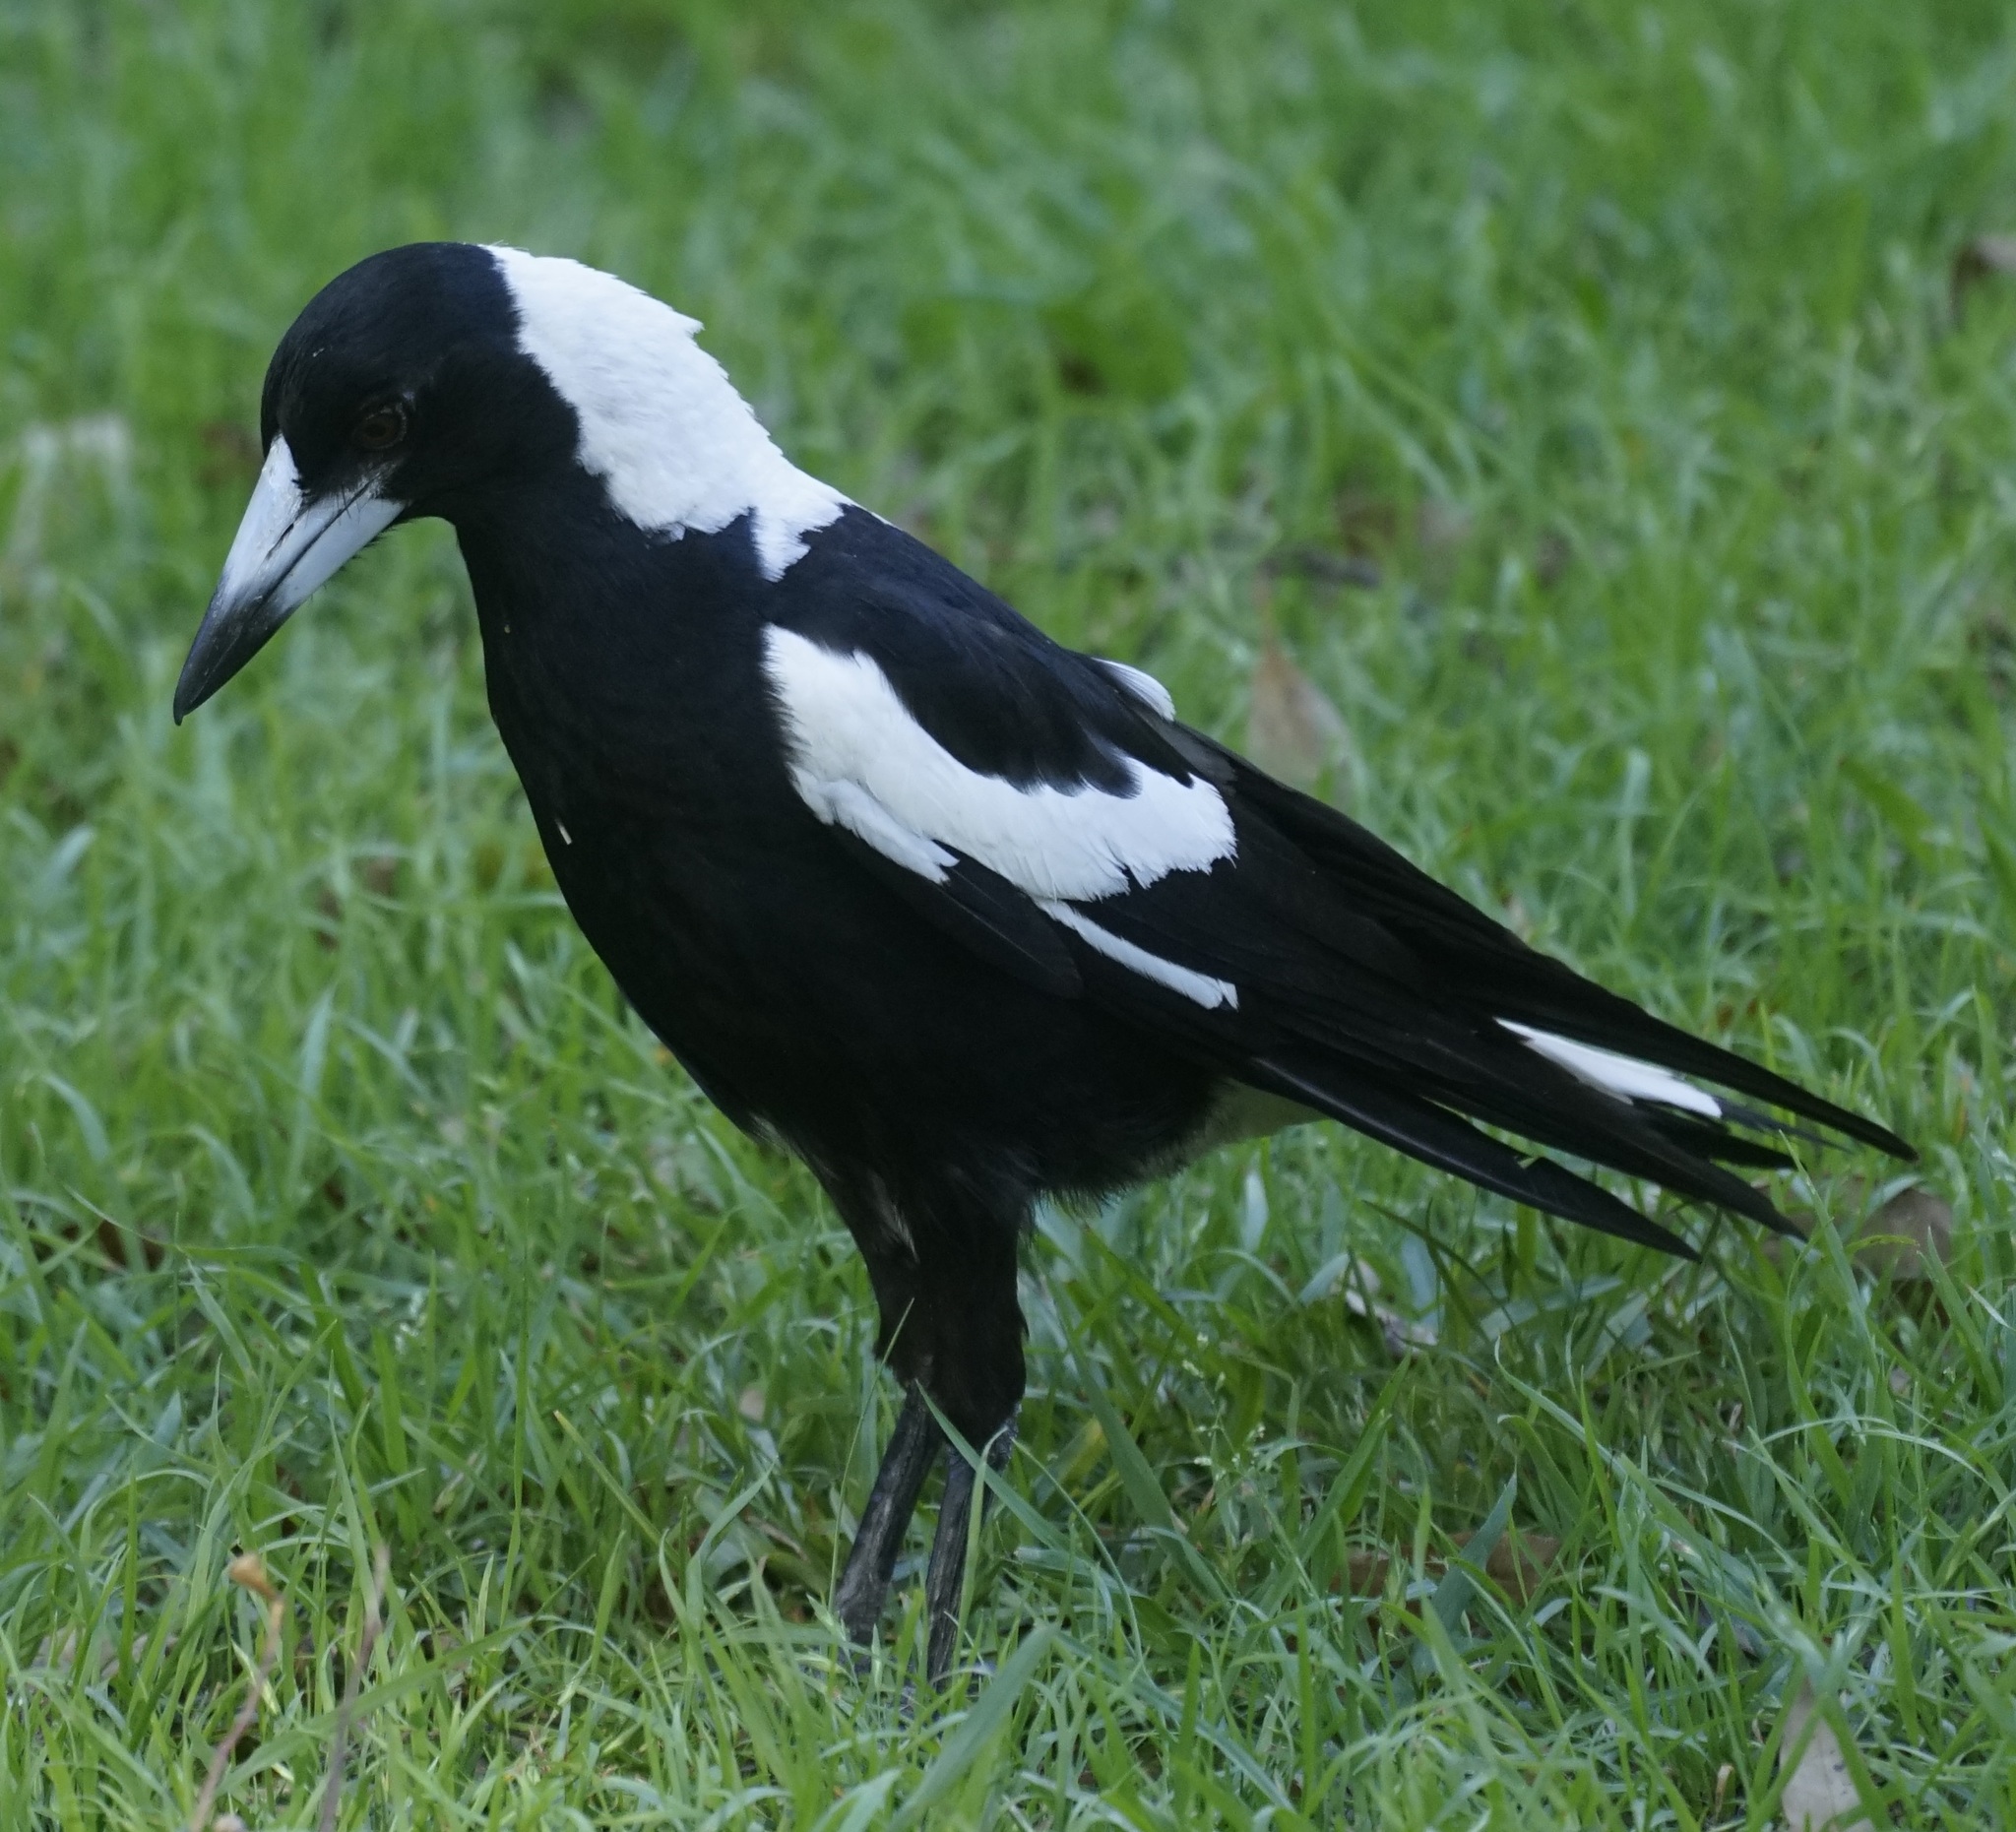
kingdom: Animalia
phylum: Chordata
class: Aves
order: Passeriformes
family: Cracticidae
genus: Gymnorhina
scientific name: Gymnorhina tibicen
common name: Australian magpie
